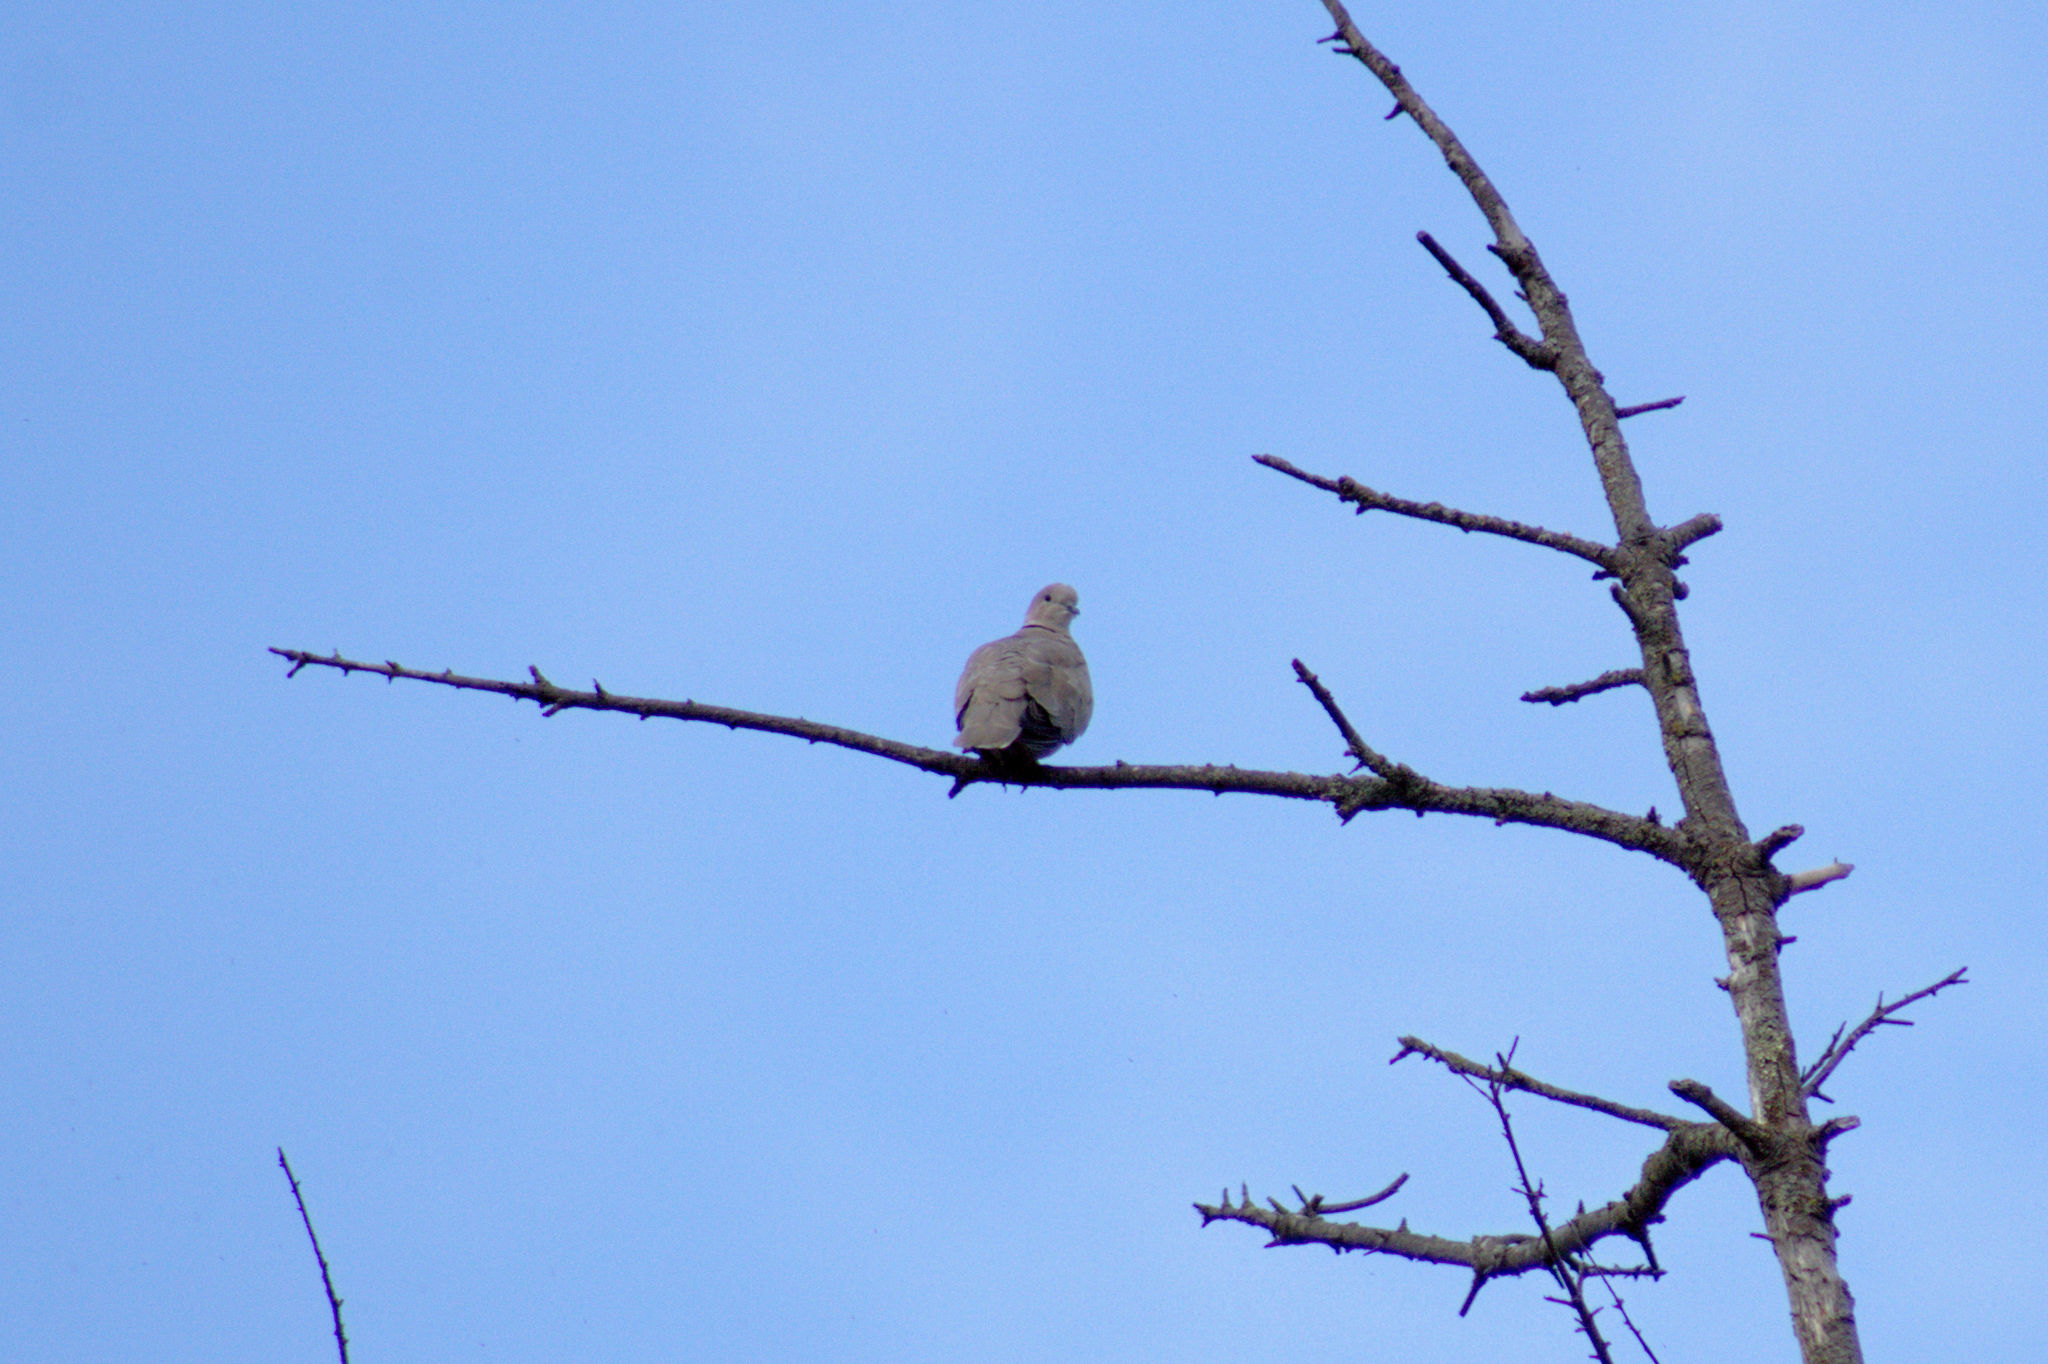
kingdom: Animalia
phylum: Chordata
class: Aves
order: Columbiformes
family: Columbidae
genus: Streptopelia
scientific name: Streptopelia decaocto
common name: Eurasian collared dove
